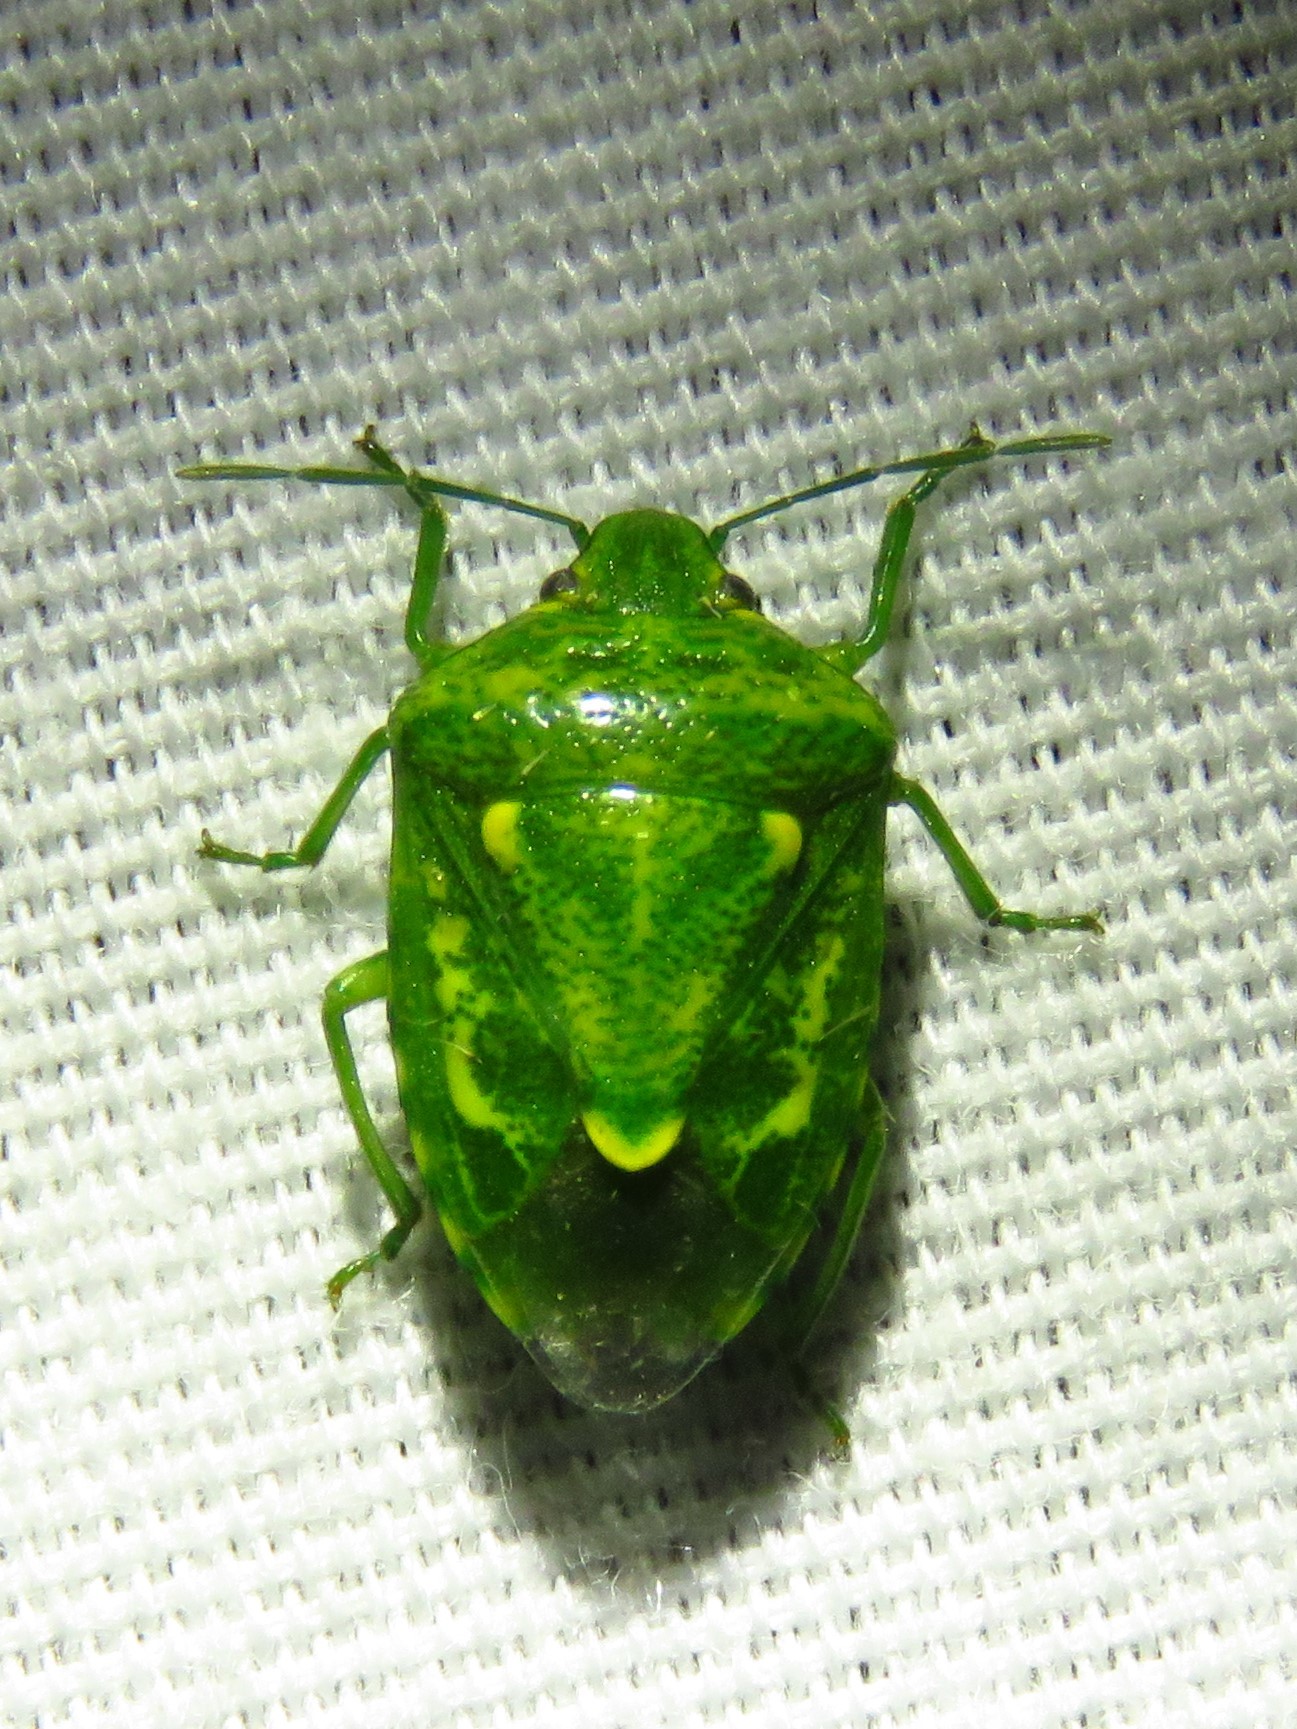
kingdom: Animalia
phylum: Arthropoda
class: Insecta
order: Hemiptera
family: Pentatomidae
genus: Banasa
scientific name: Banasa euchlora
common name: Cedar berry bug
